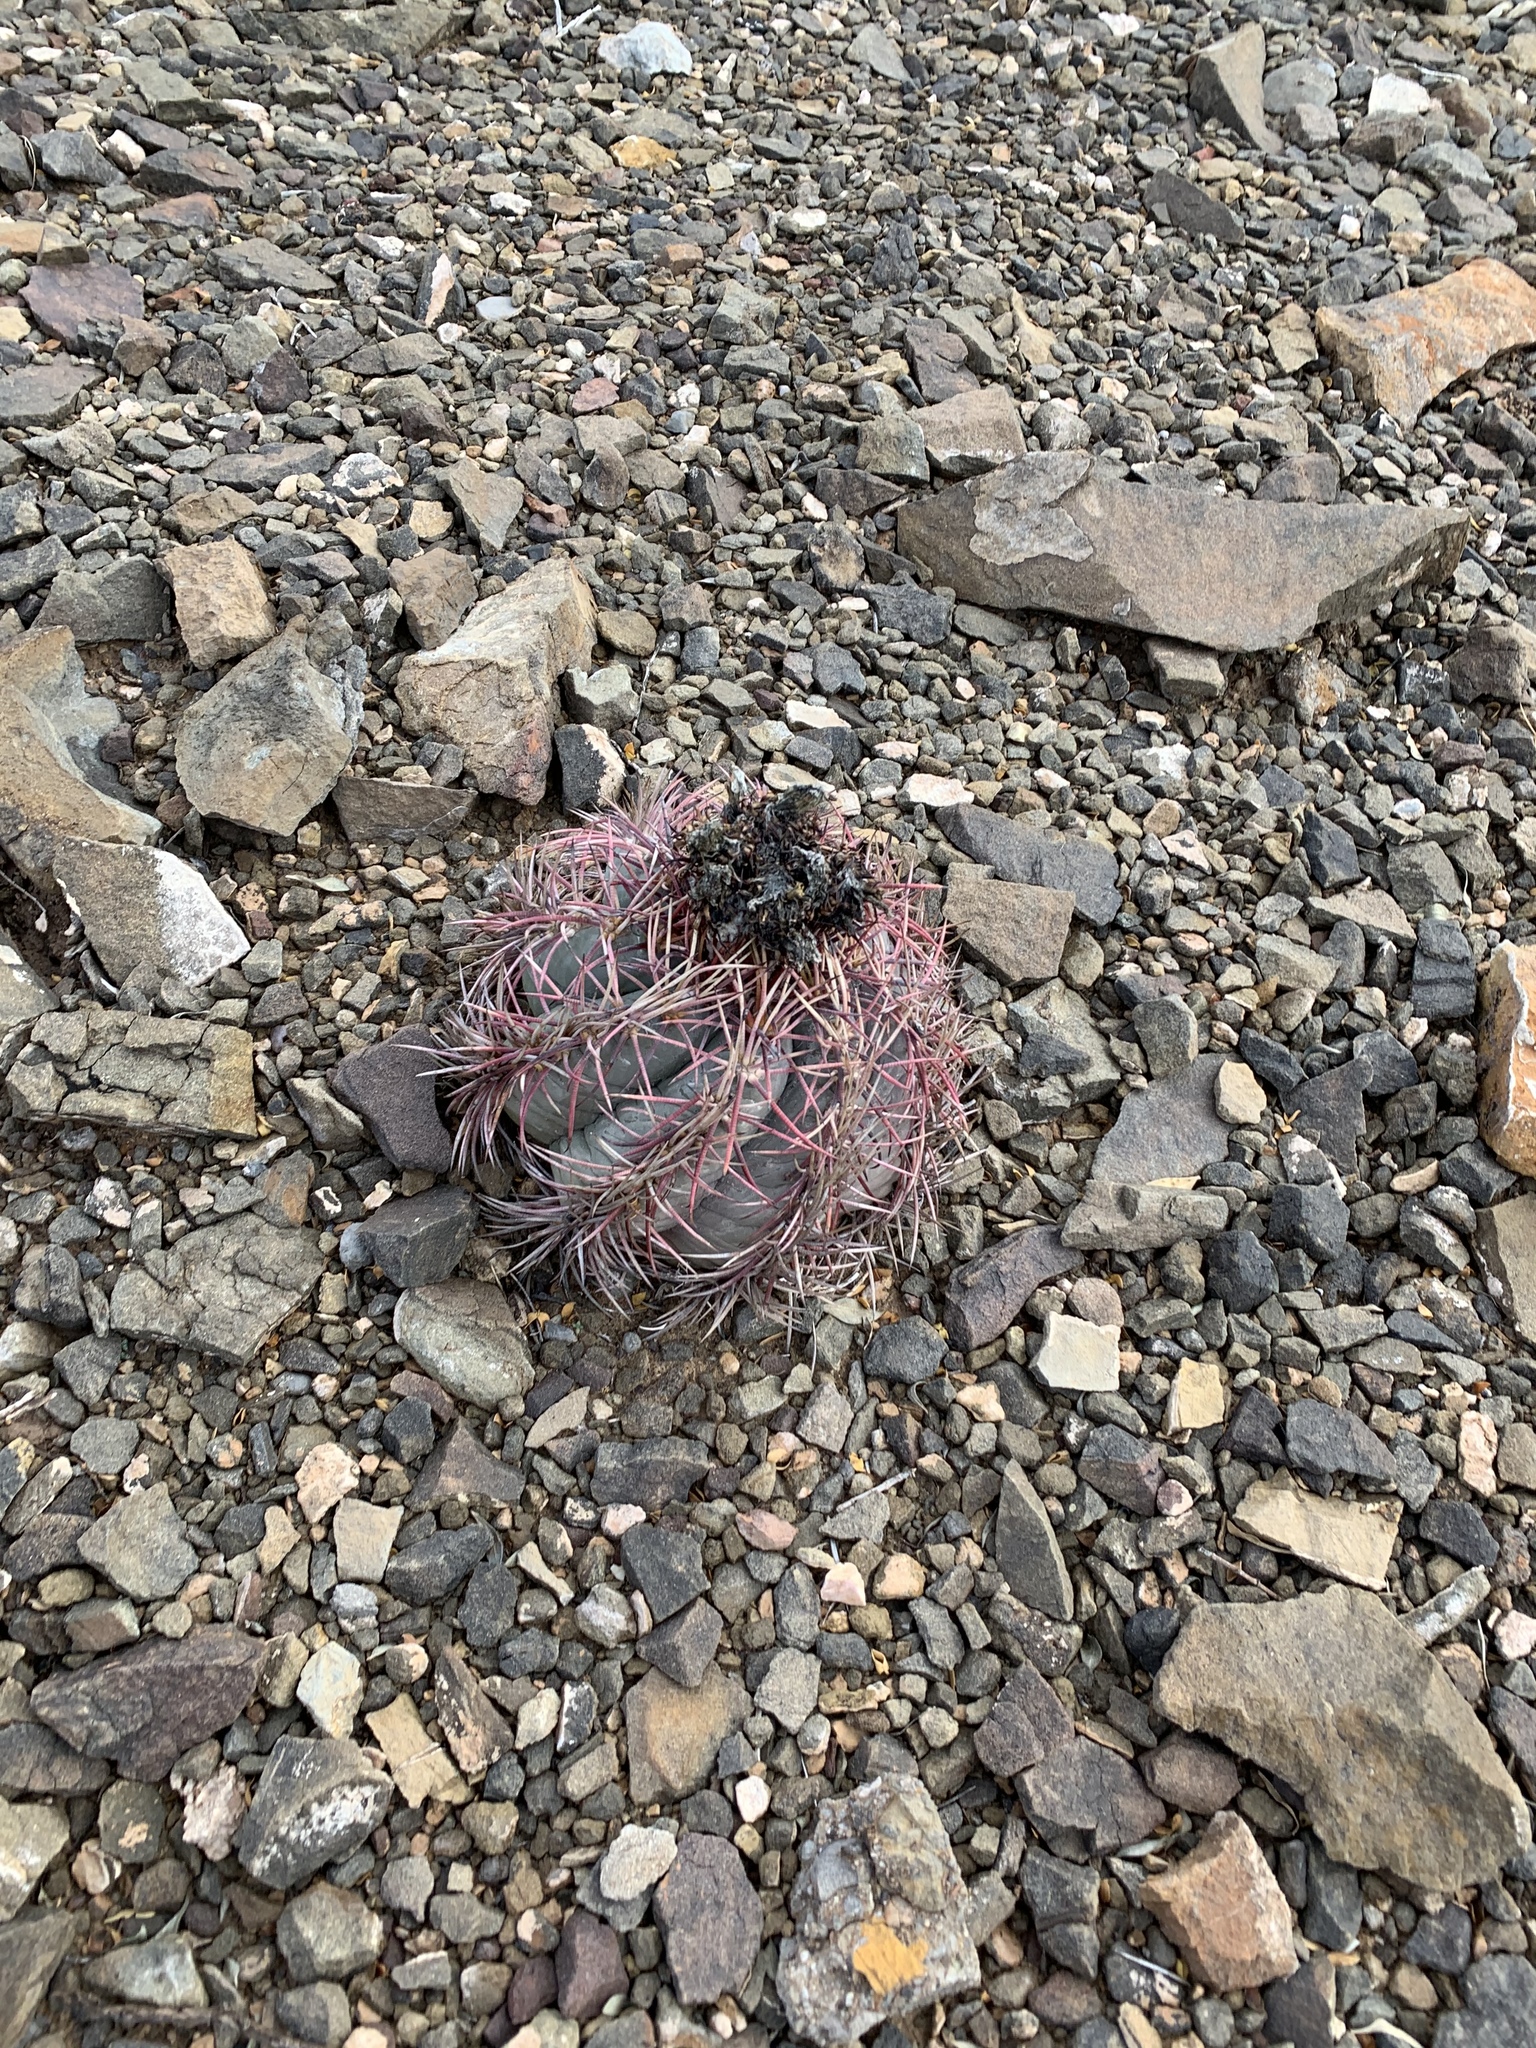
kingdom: Plantae
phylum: Tracheophyta
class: Magnoliopsida
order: Caryophyllales
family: Cactaceae
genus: Echinocactus
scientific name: Echinocactus horizonthalonius
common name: Devilshead
